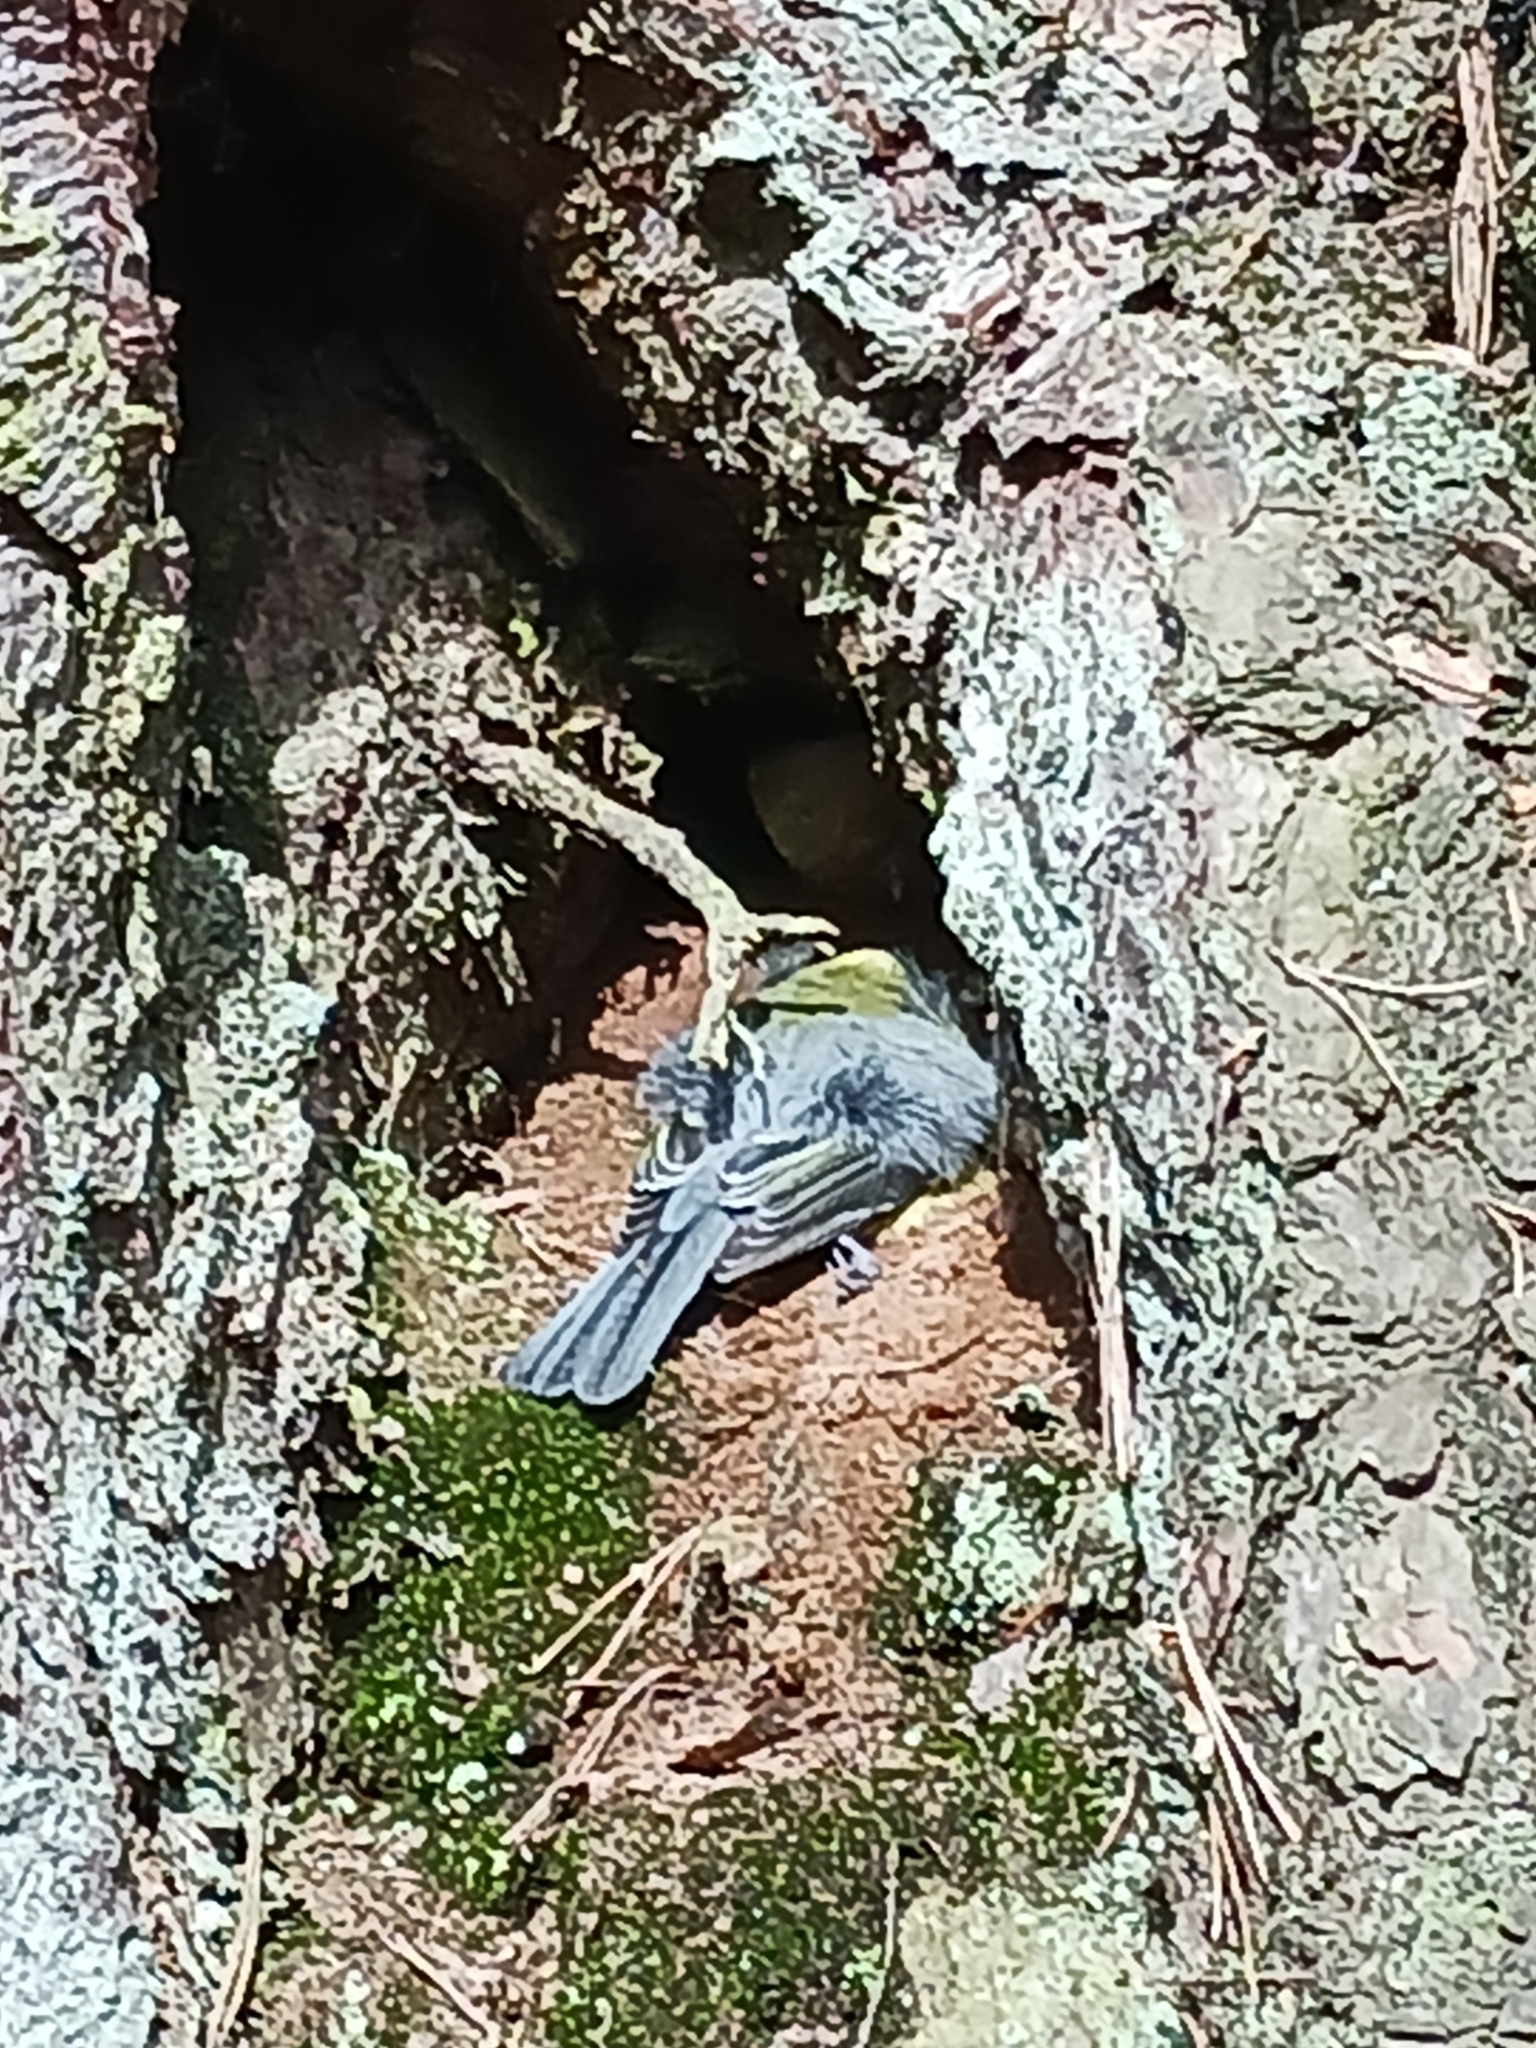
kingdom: Animalia
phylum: Chordata
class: Aves
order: Passeriformes
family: Paridae
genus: Parus
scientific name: Parus major
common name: Great tit
